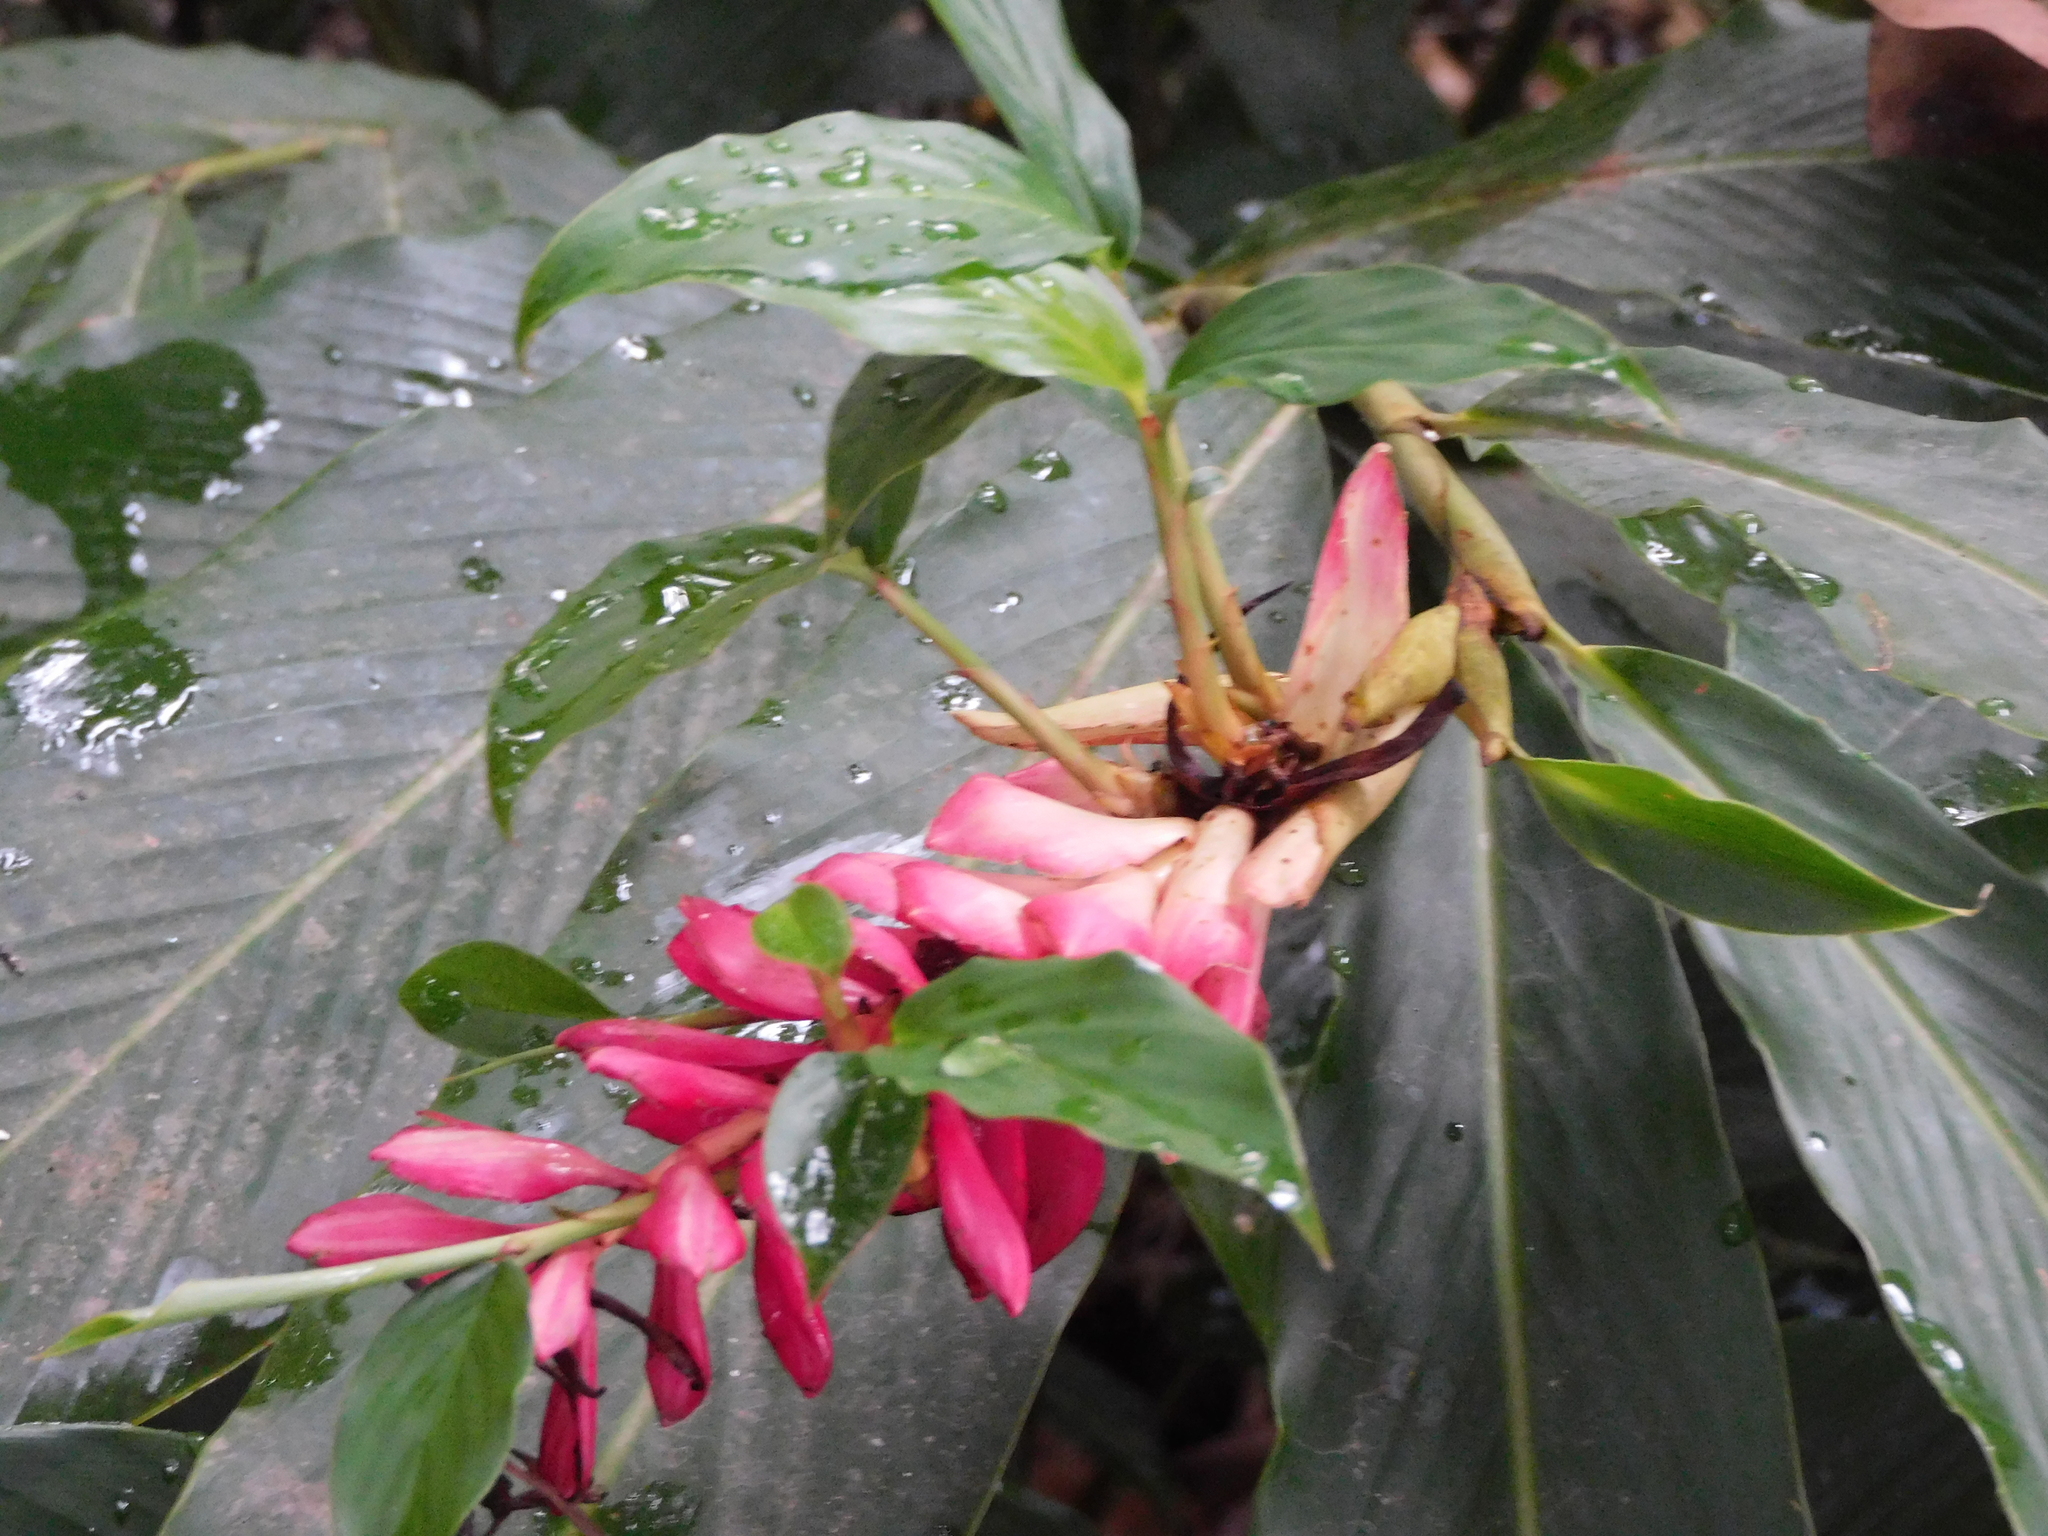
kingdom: Plantae
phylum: Tracheophyta
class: Liliopsida
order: Zingiberales
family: Zingiberaceae
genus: Alpinia
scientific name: Alpinia purpurata
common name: Red ginger
